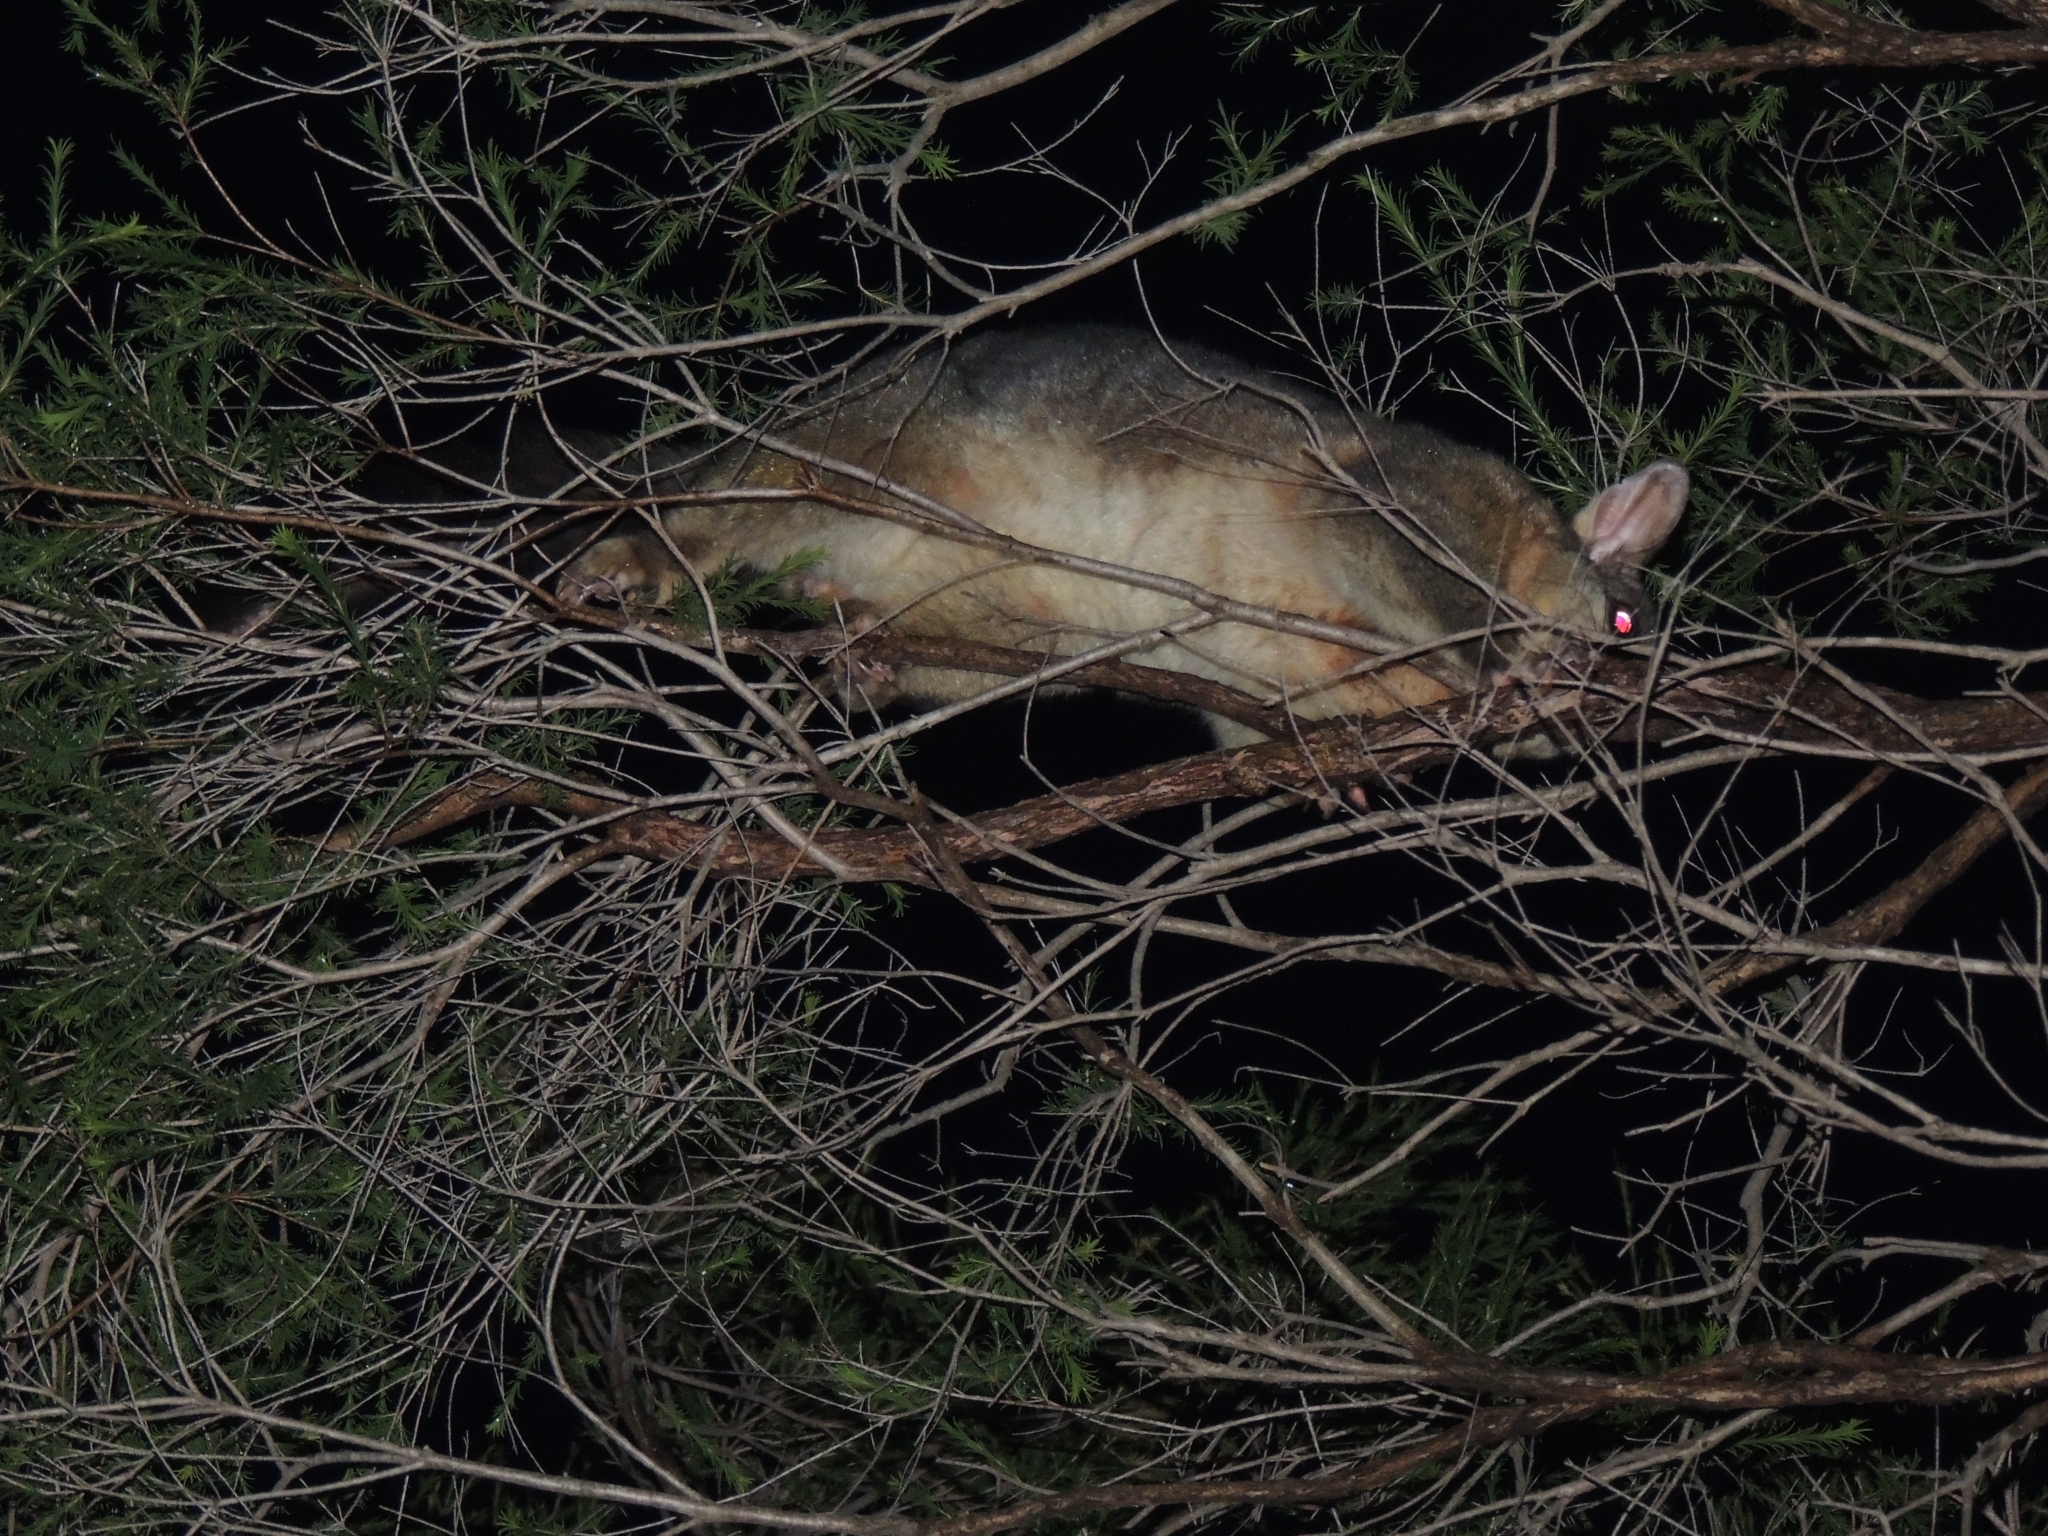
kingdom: Animalia
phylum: Chordata
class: Mammalia
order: Diprotodontia
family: Phalangeridae
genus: Trichosurus
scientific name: Trichosurus vulpecula
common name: Common brushtail
